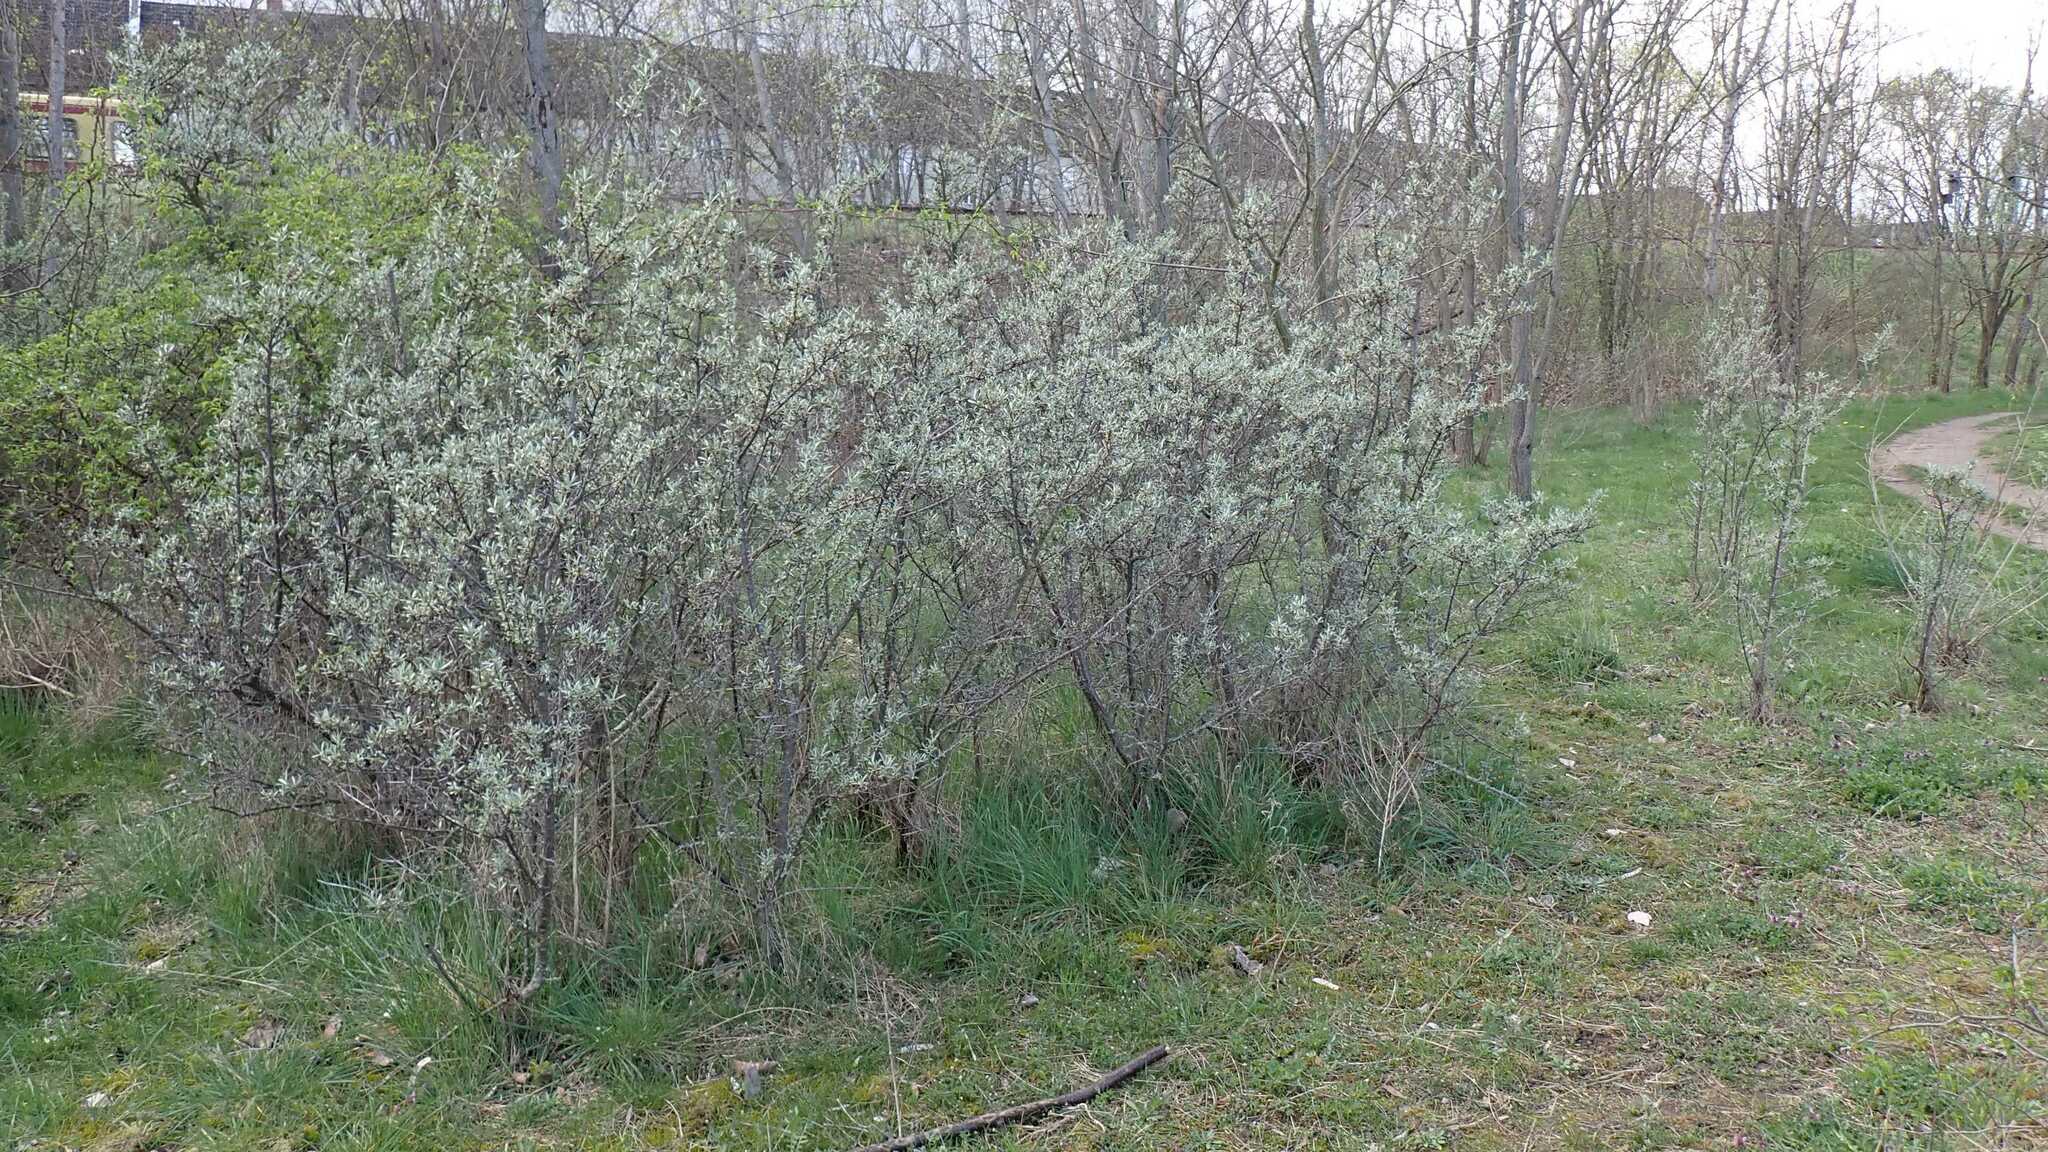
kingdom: Plantae
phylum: Tracheophyta
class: Magnoliopsida
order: Rosales
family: Elaeagnaceae
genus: Hippophae
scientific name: Hippophae rhamnoides
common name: Sea-buckthorn
